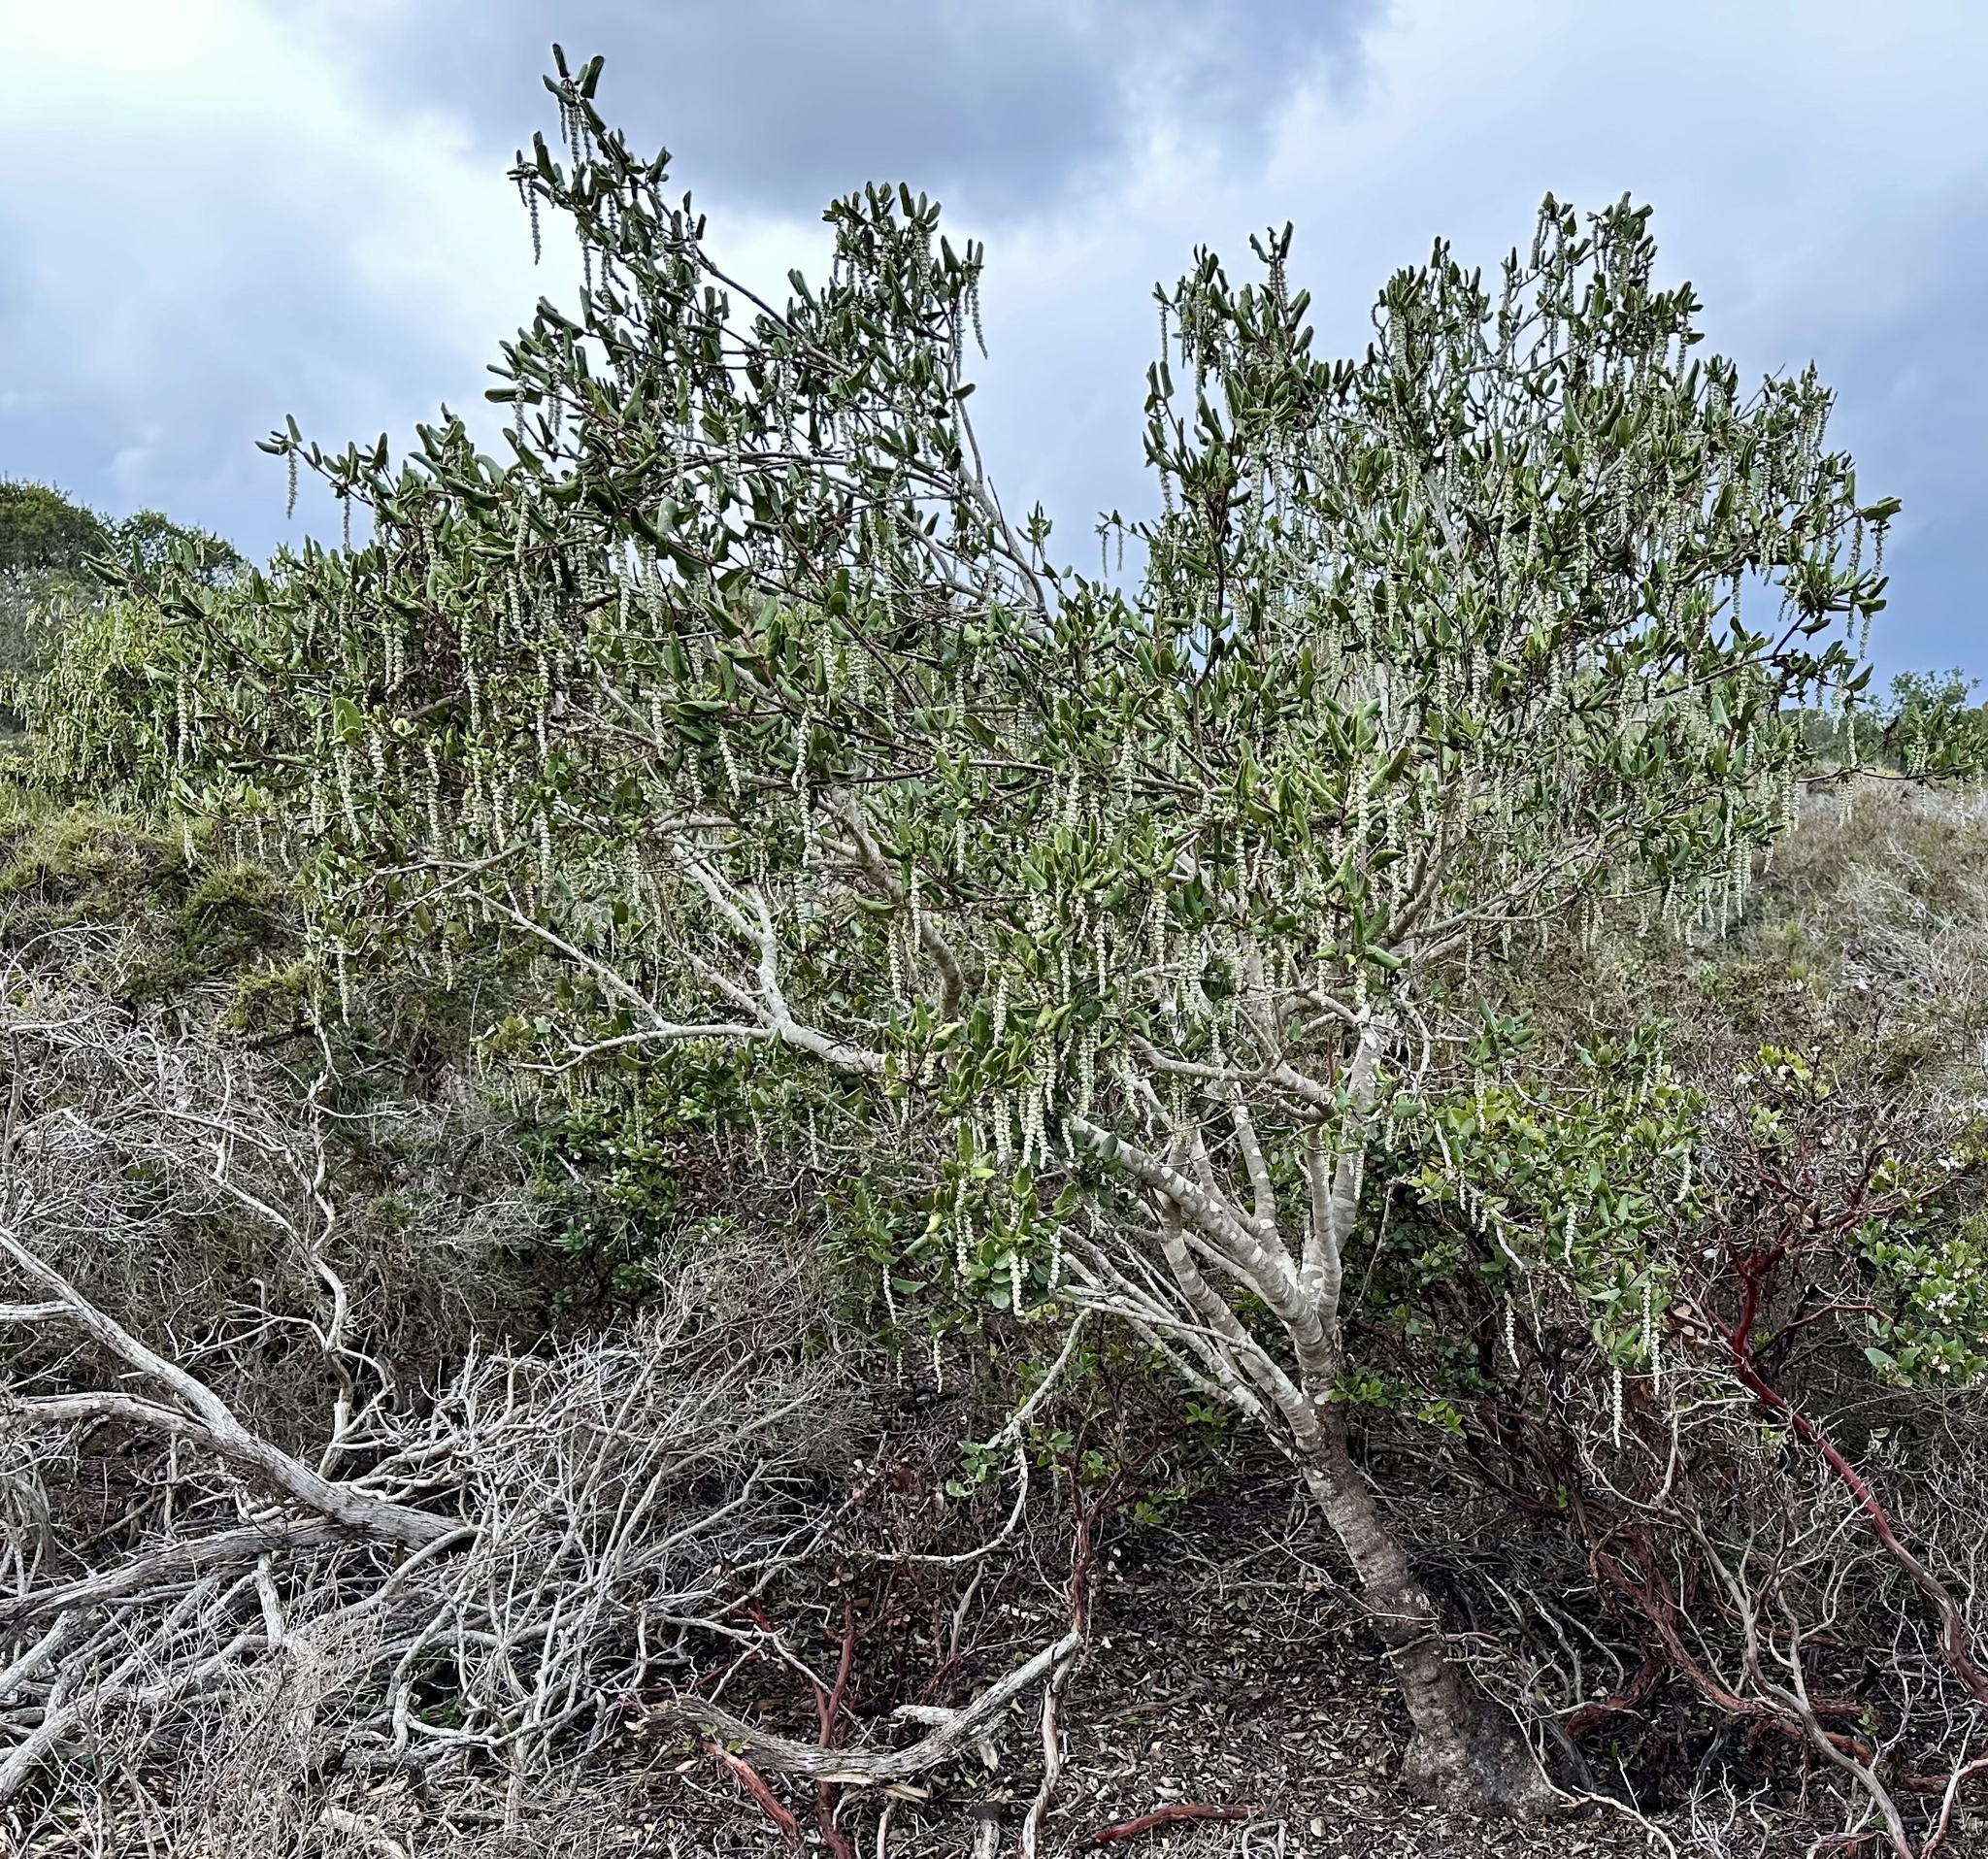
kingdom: Plantae
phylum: Tracheophyta
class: Magnoliopsida
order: Garryales
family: Garryaceae
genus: Garrya
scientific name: Garrya elliptica
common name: Silk-tassel
